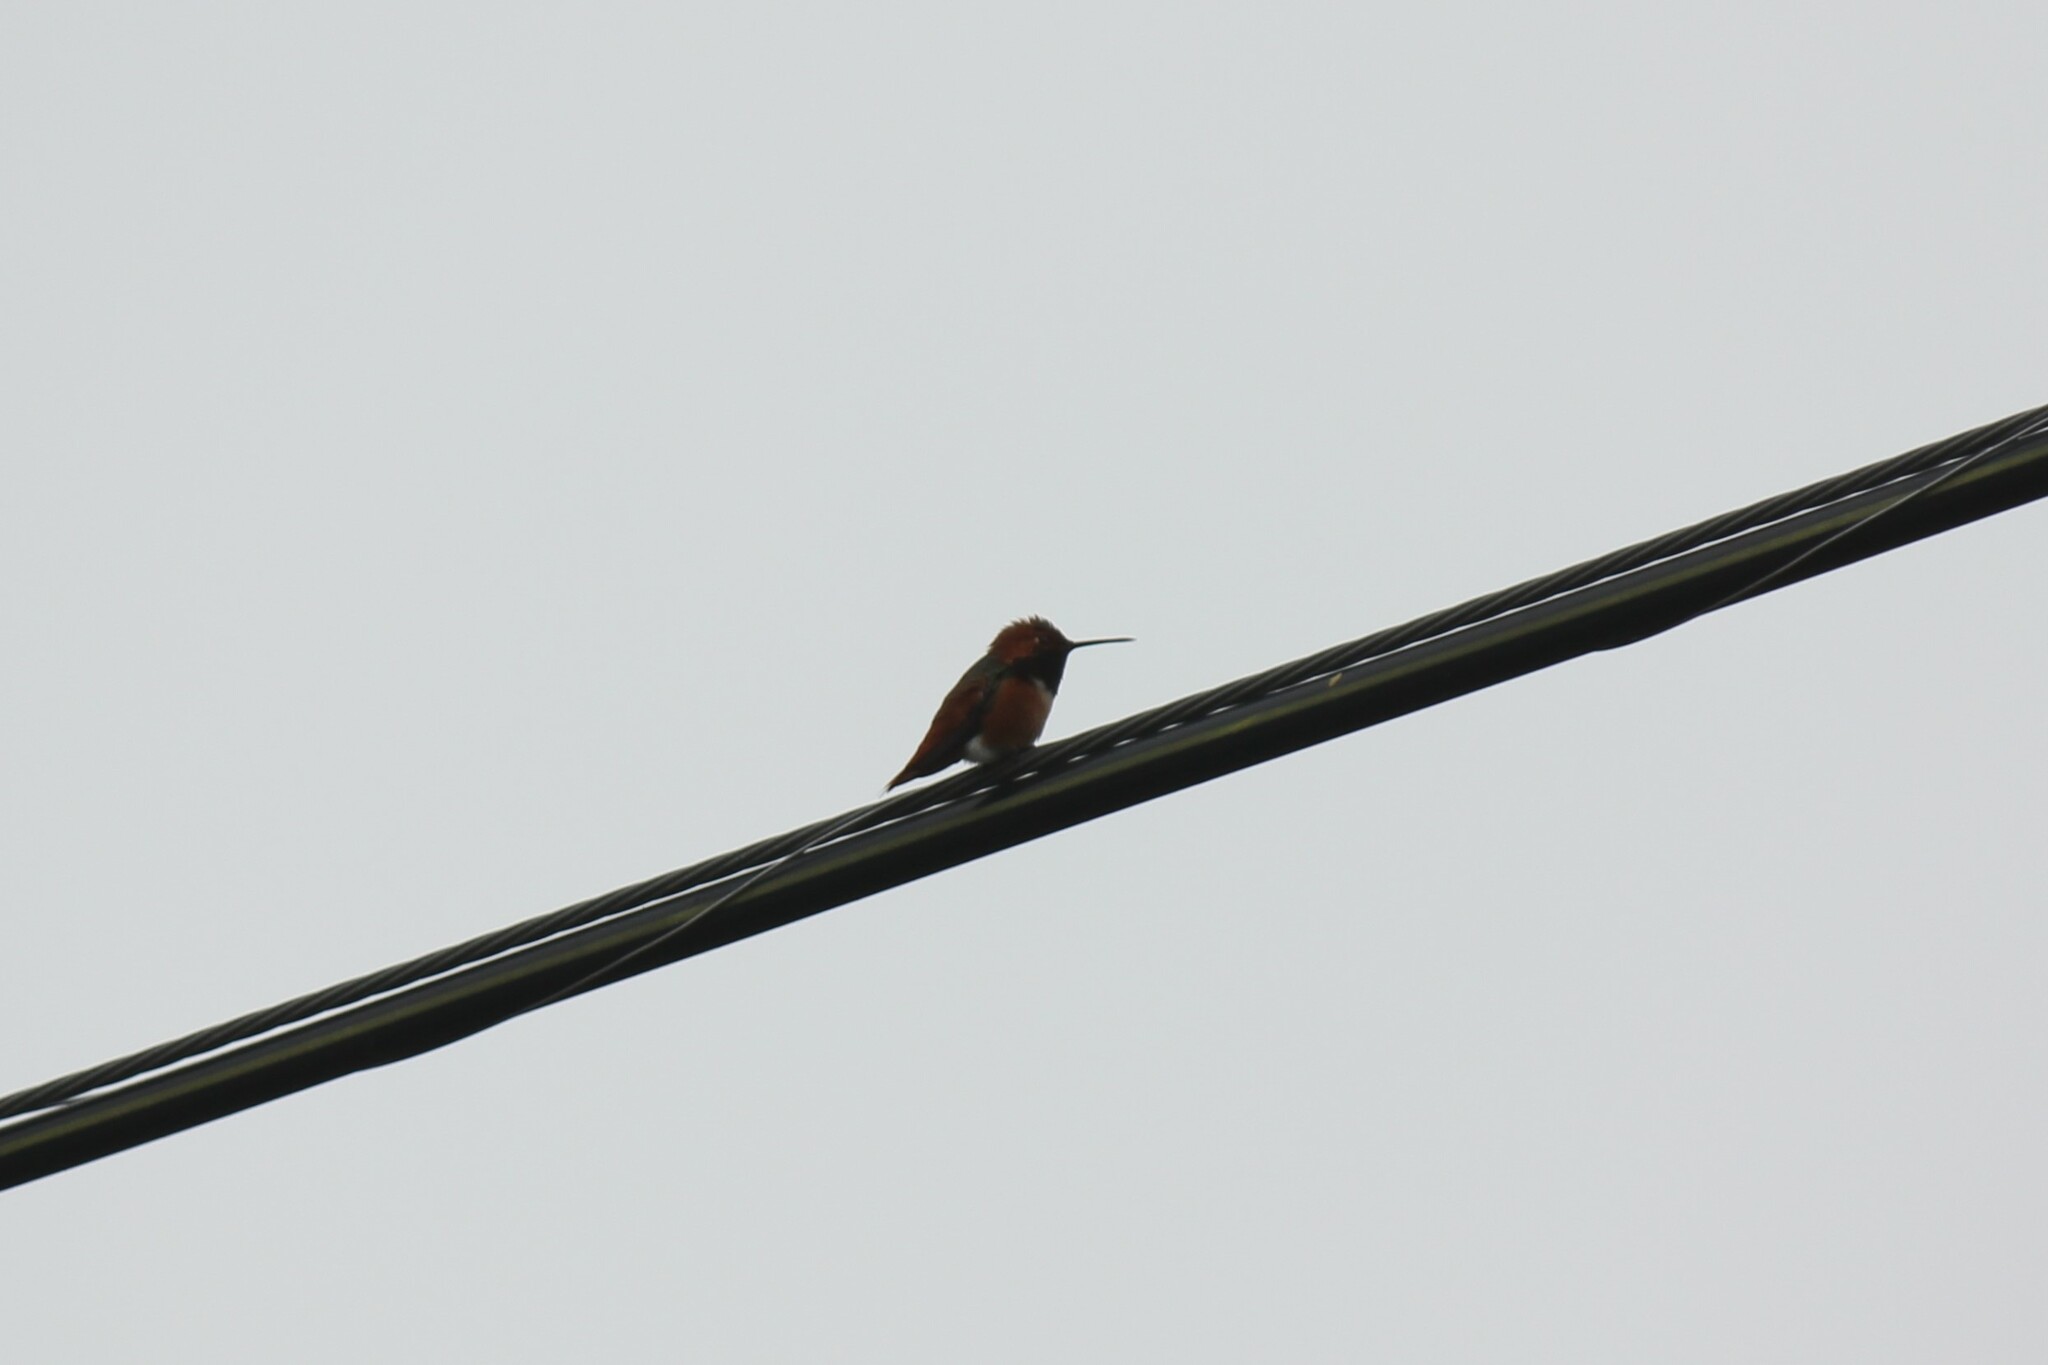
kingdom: Animalia
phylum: Chordata
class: Aves
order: Apodiformes
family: Trochilidae
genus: Selasphorus
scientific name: Selasphorus sasin
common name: Allen's hummingbird
